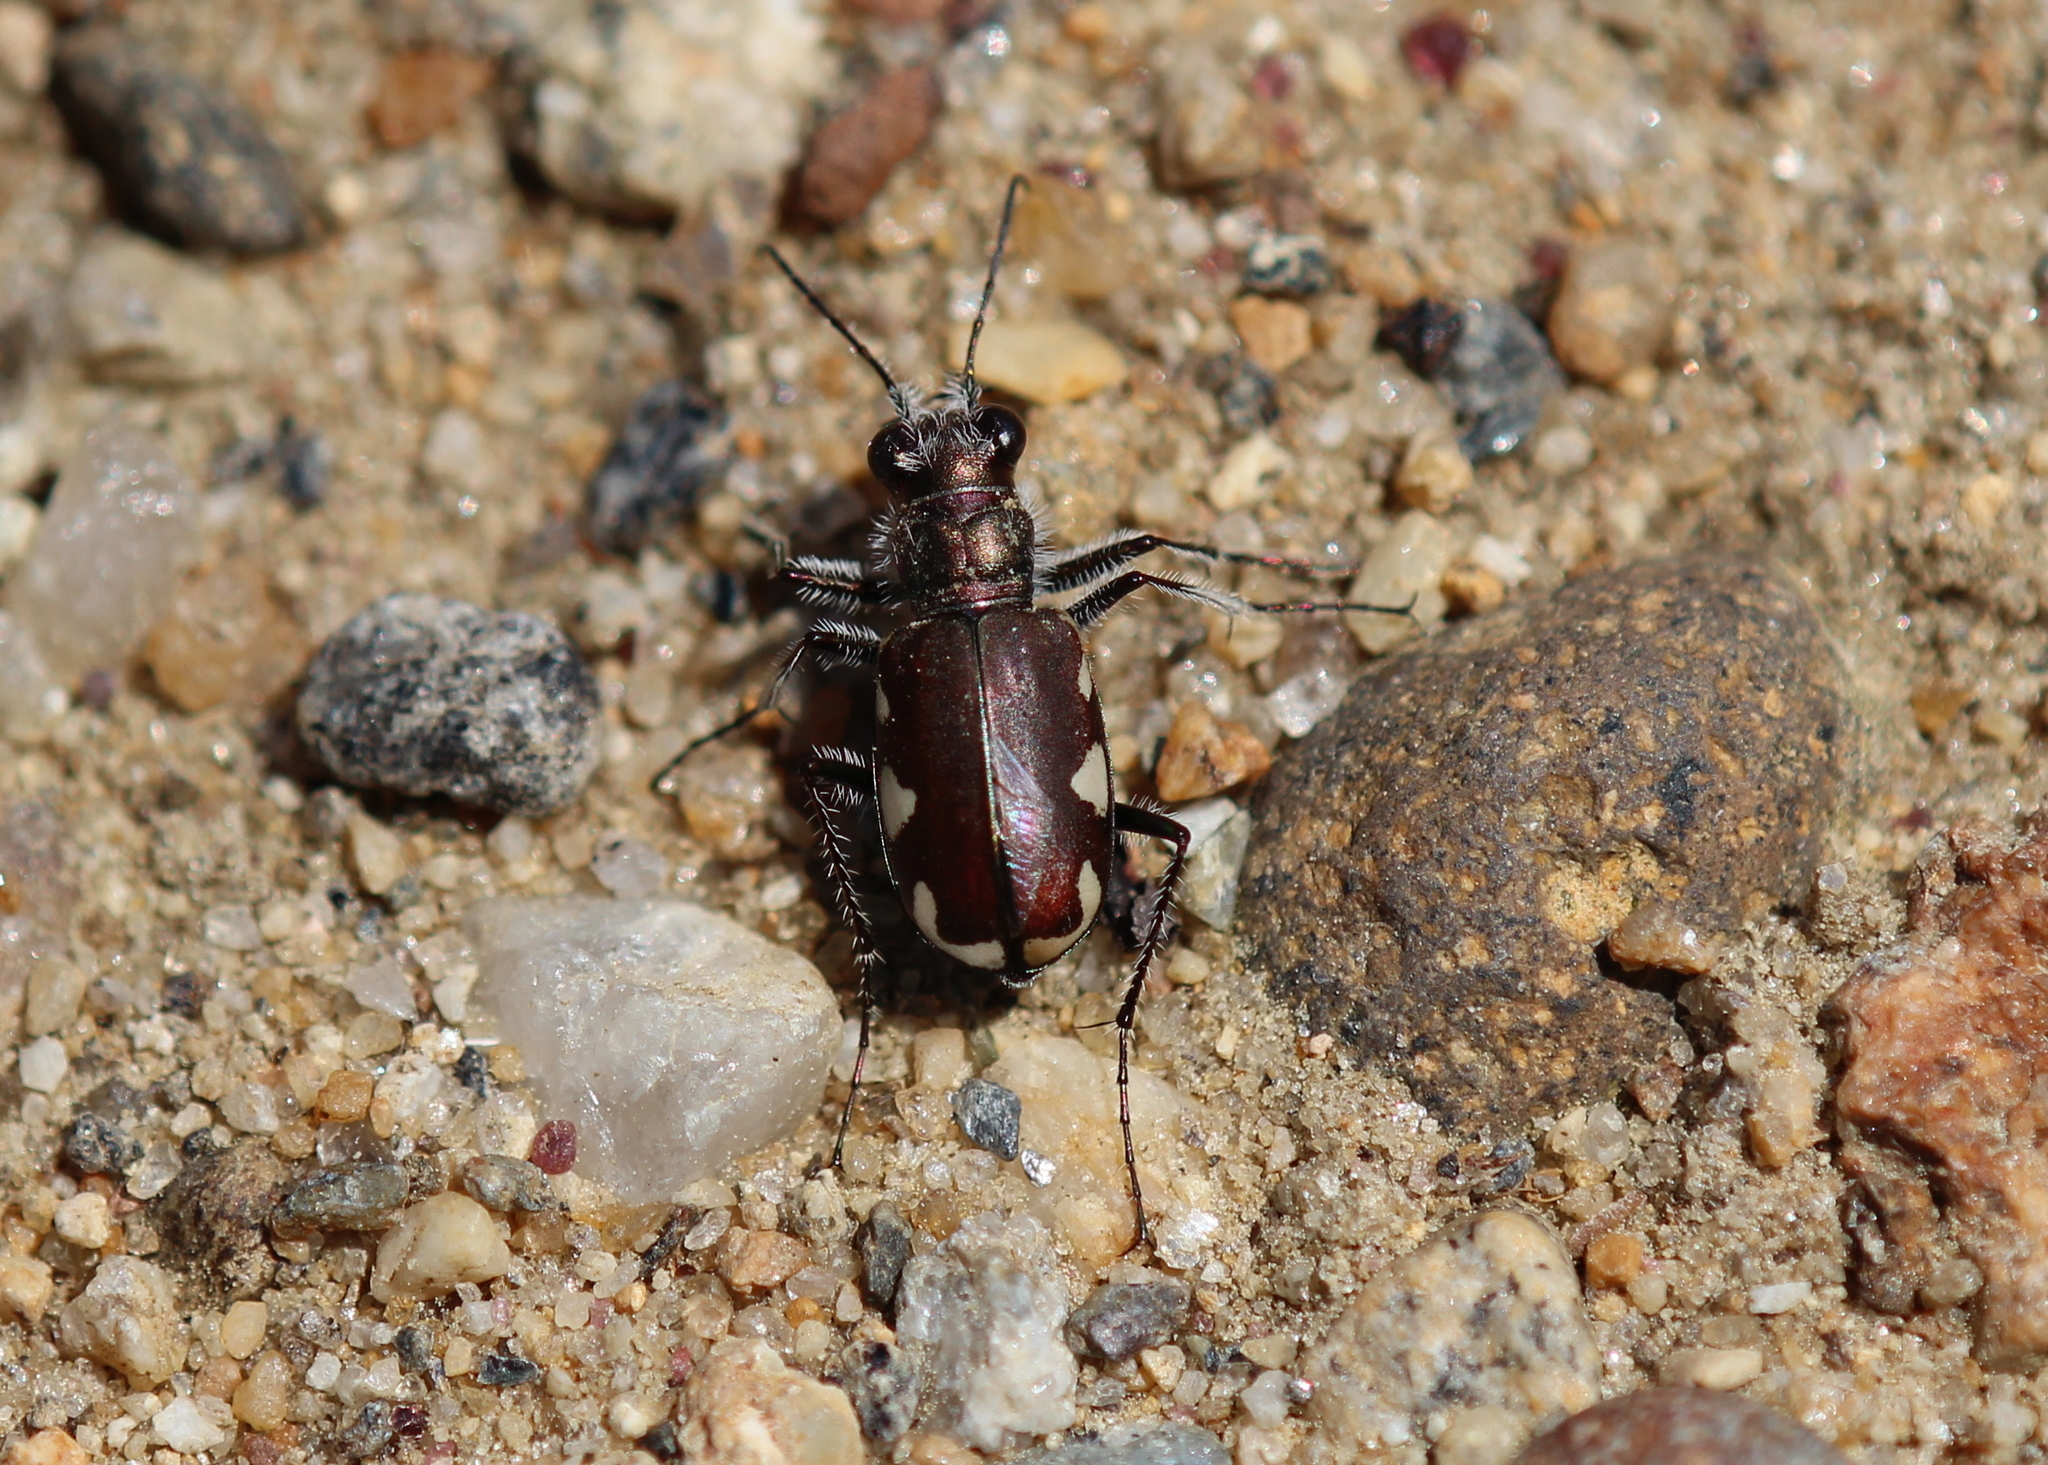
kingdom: Animalia
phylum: Arthropoda
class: Insecta
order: Coleoptera
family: Carabidae
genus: Cicindela
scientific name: Cicindela scutellaris
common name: Festive tiger beetle
